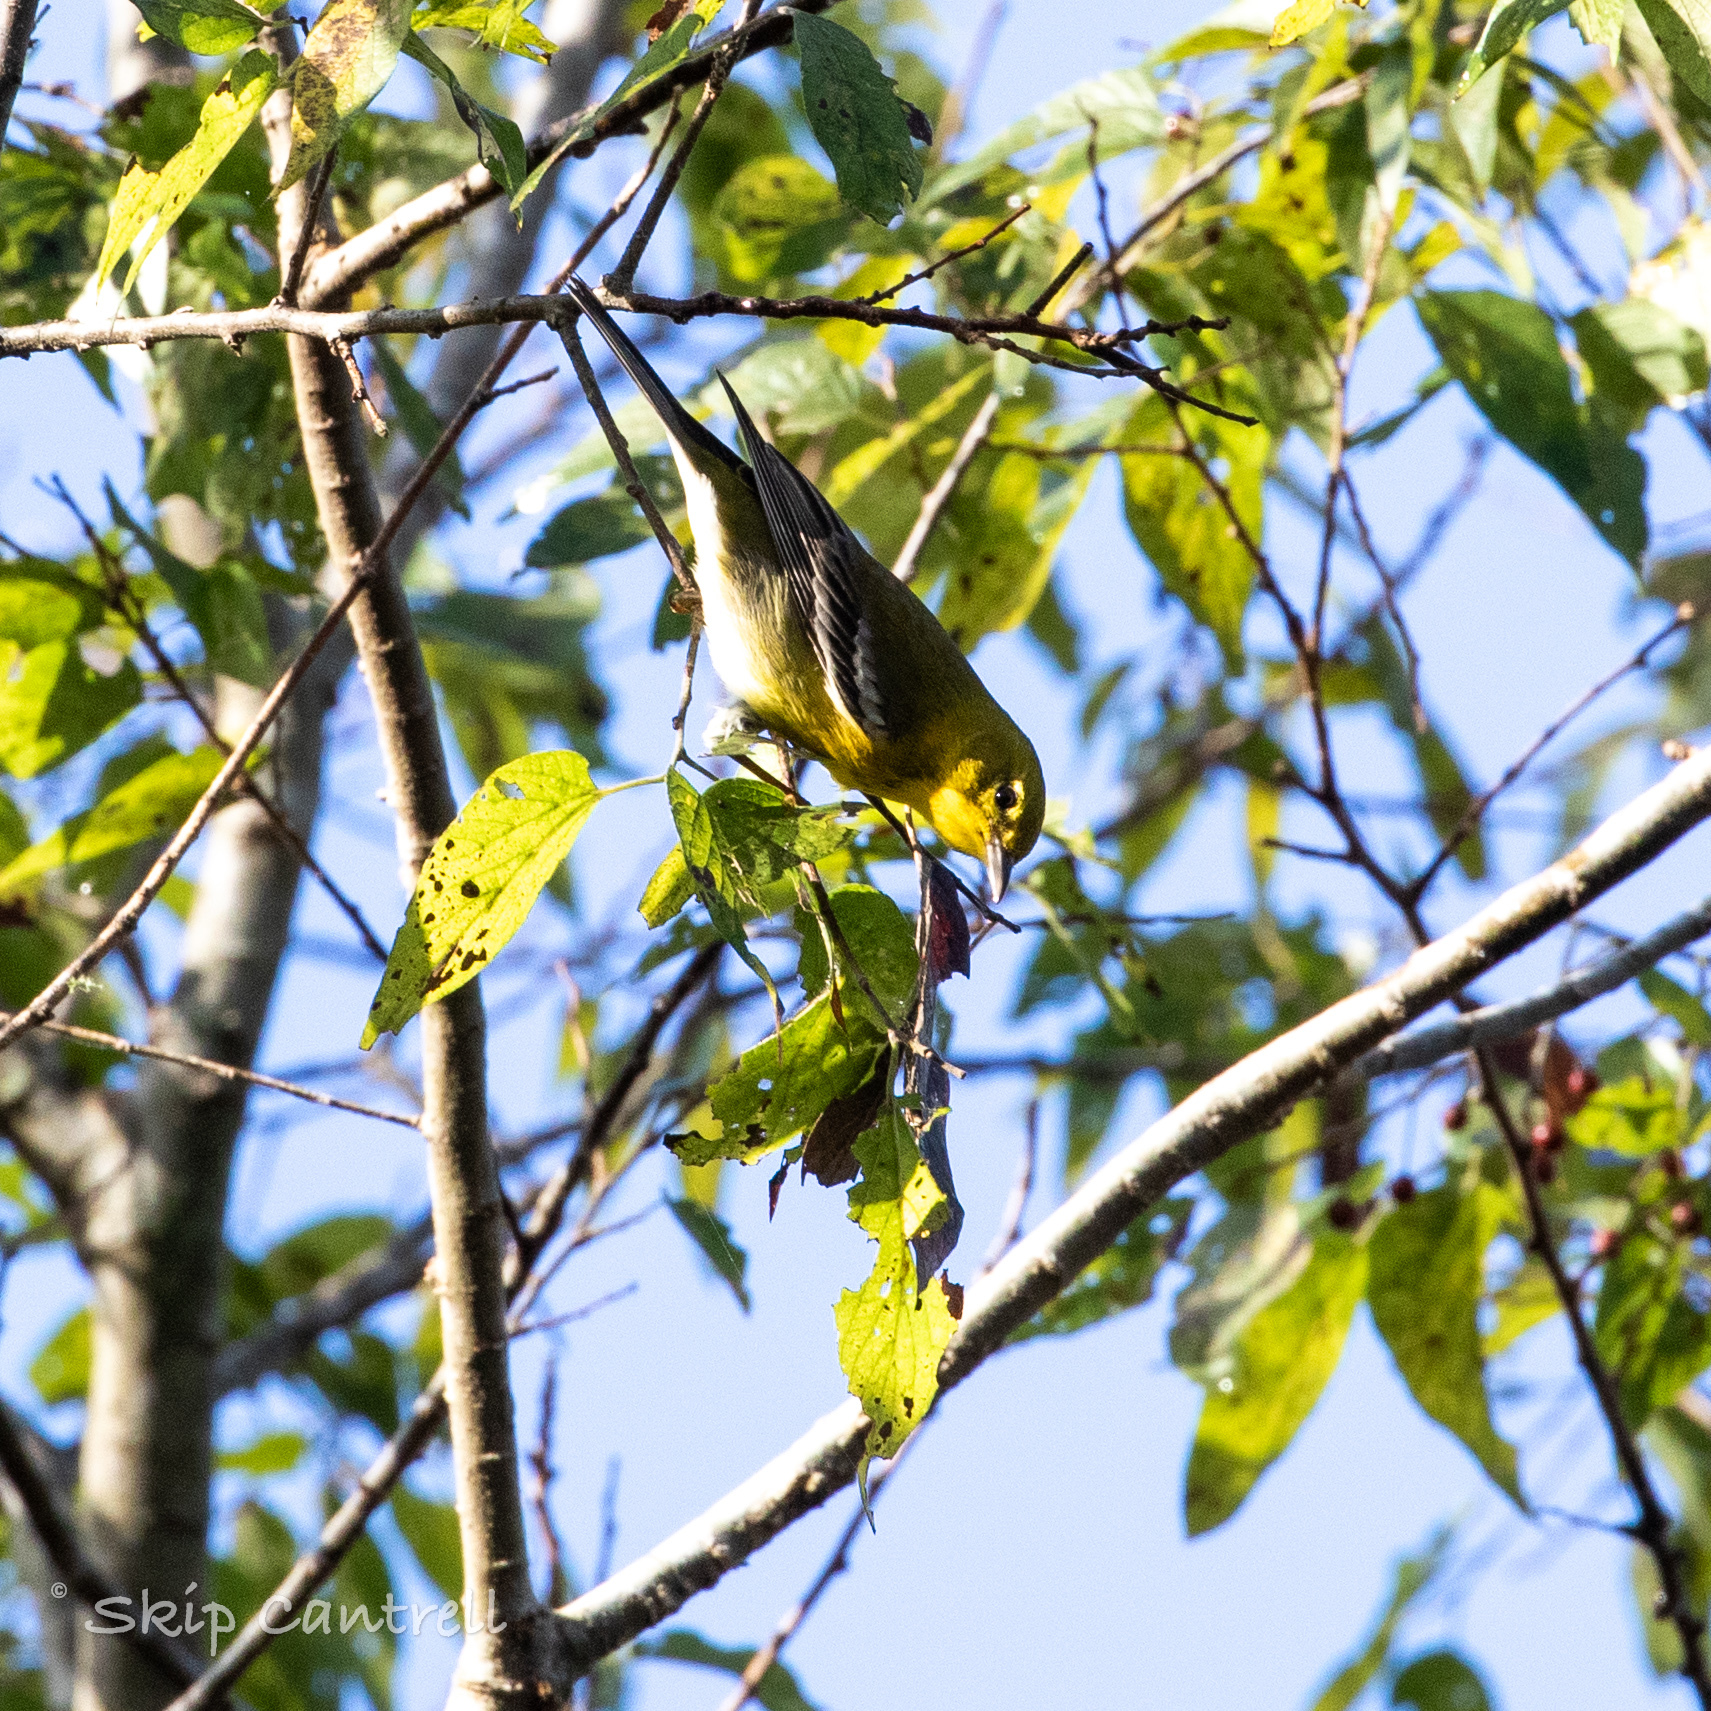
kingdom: Animalia
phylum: Chordata
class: Aves
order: Passeriformes
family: Parulidae
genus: Setophaga
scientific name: Setophaga pinus
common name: Pine warbler
